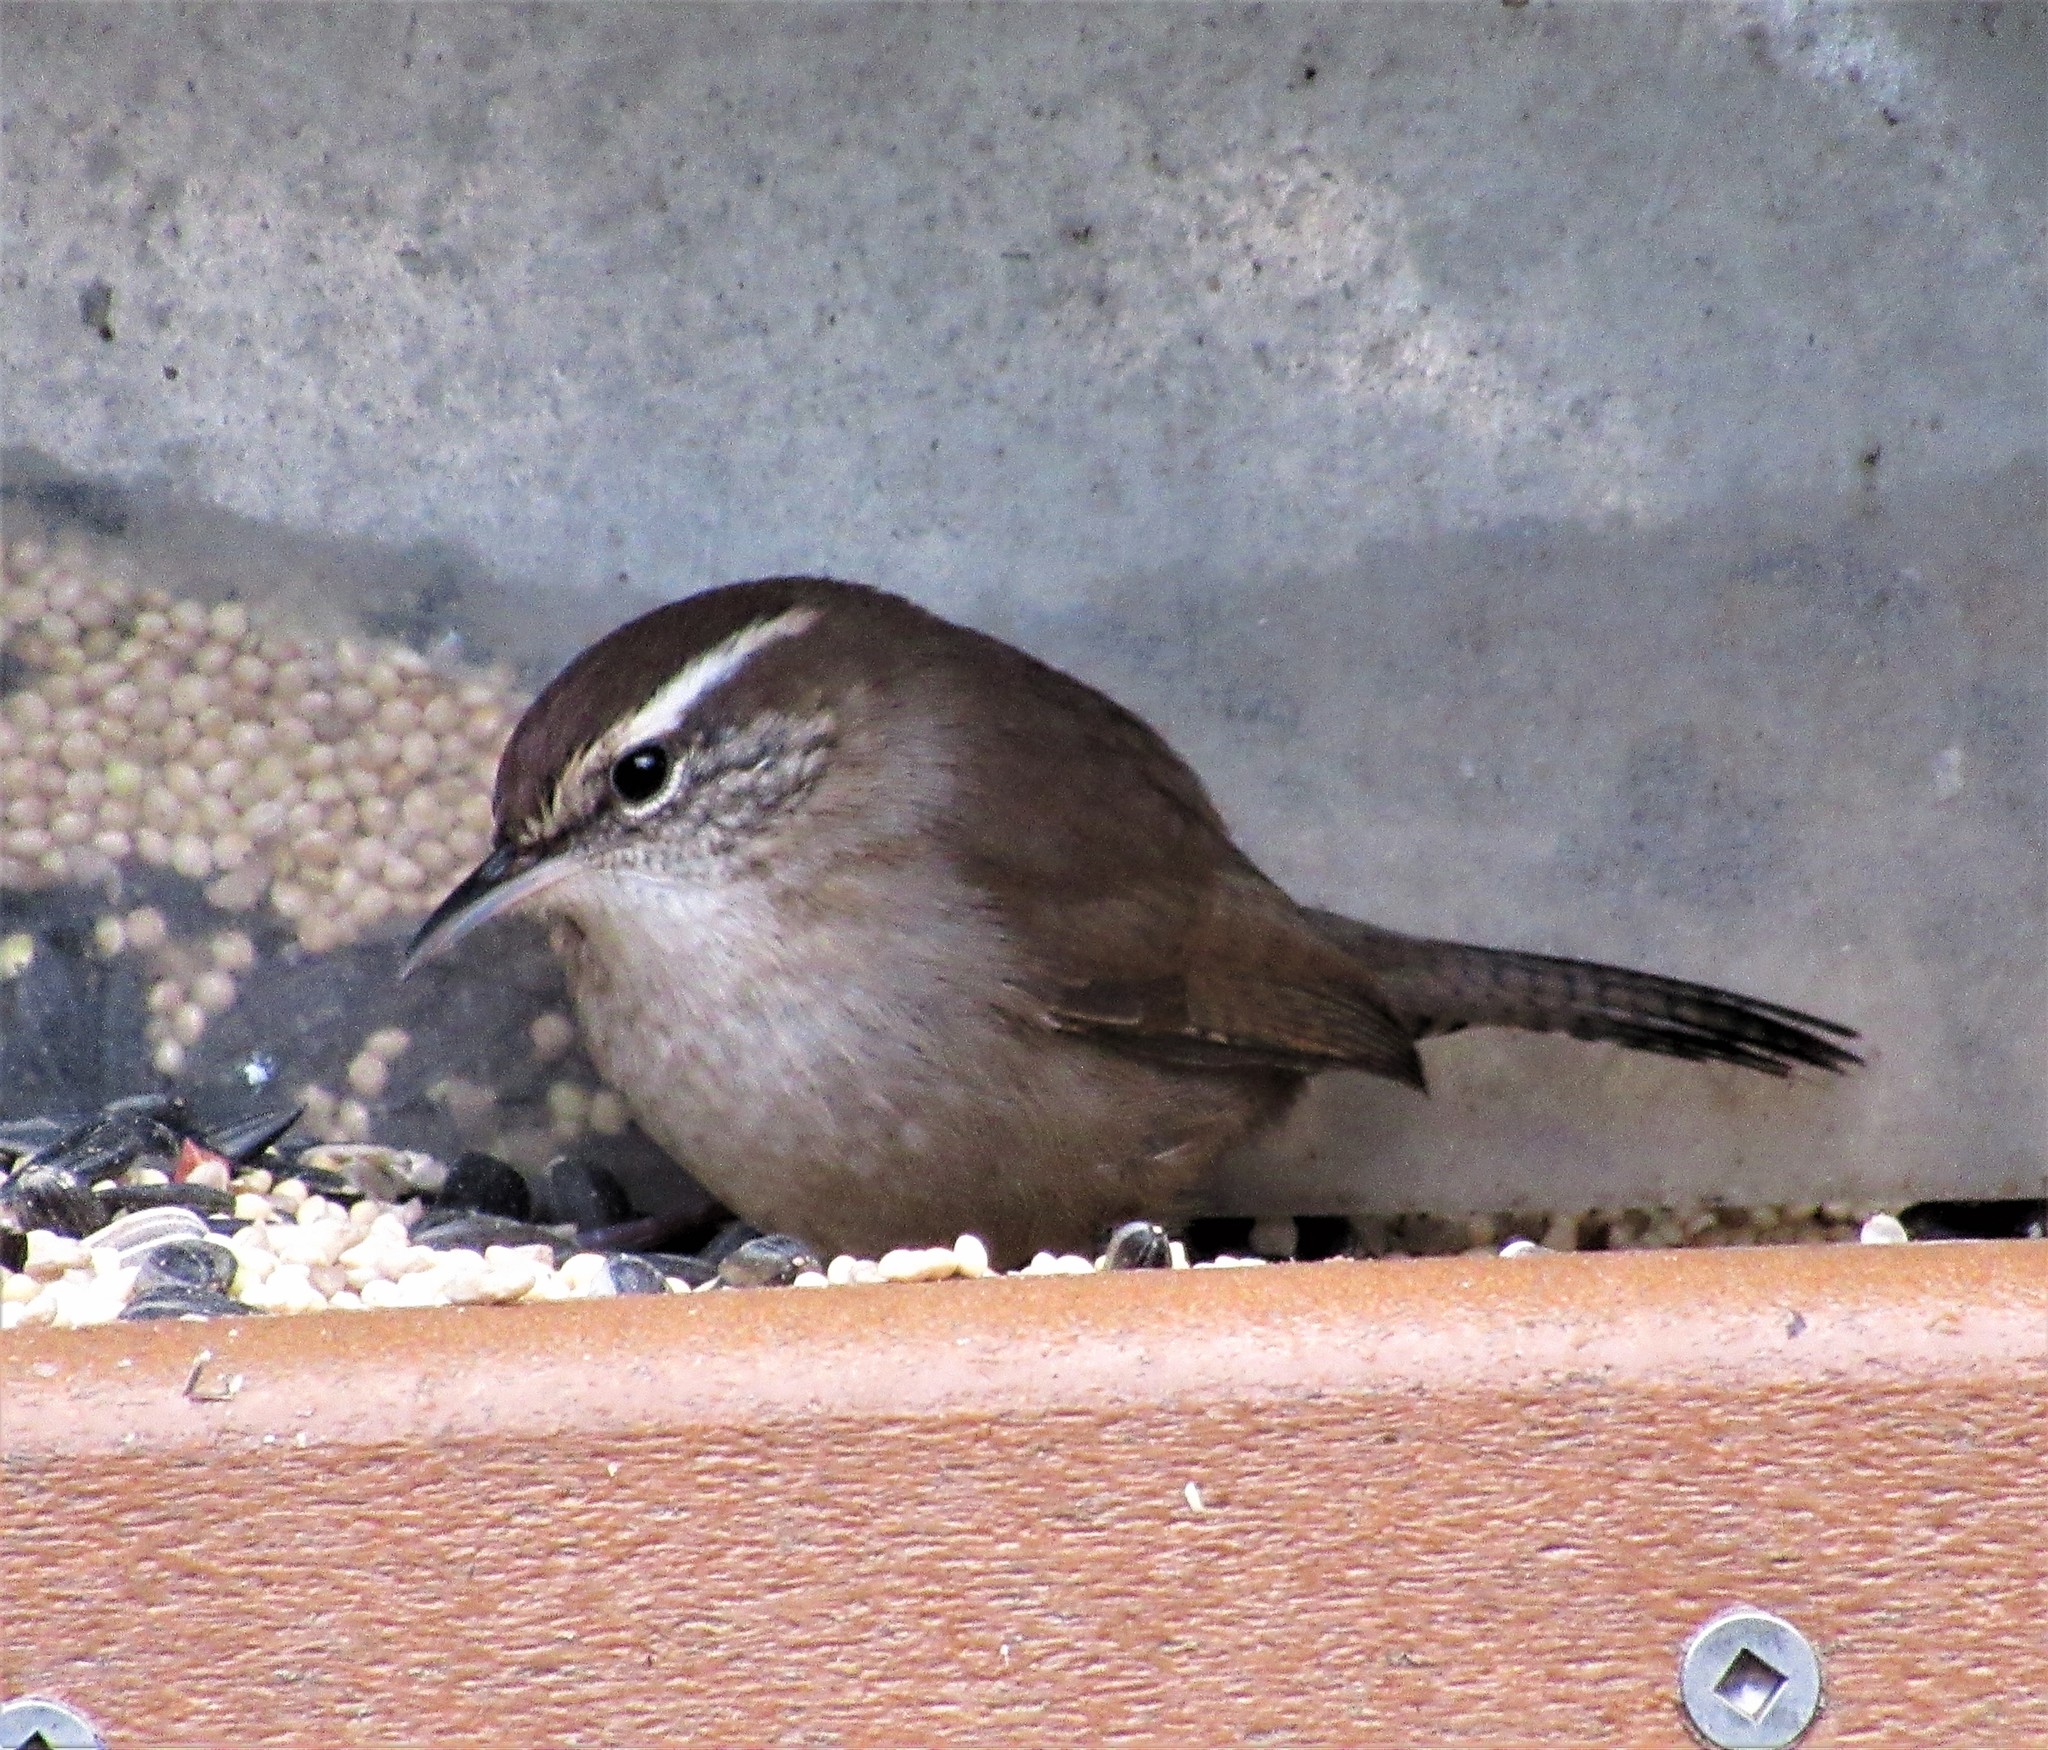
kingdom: Animalia
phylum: Chordata
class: Aves
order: Passeriformes
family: Troglodytidae
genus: Thryomanes
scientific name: Thryomanes bewickii
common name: Bewick's wren
